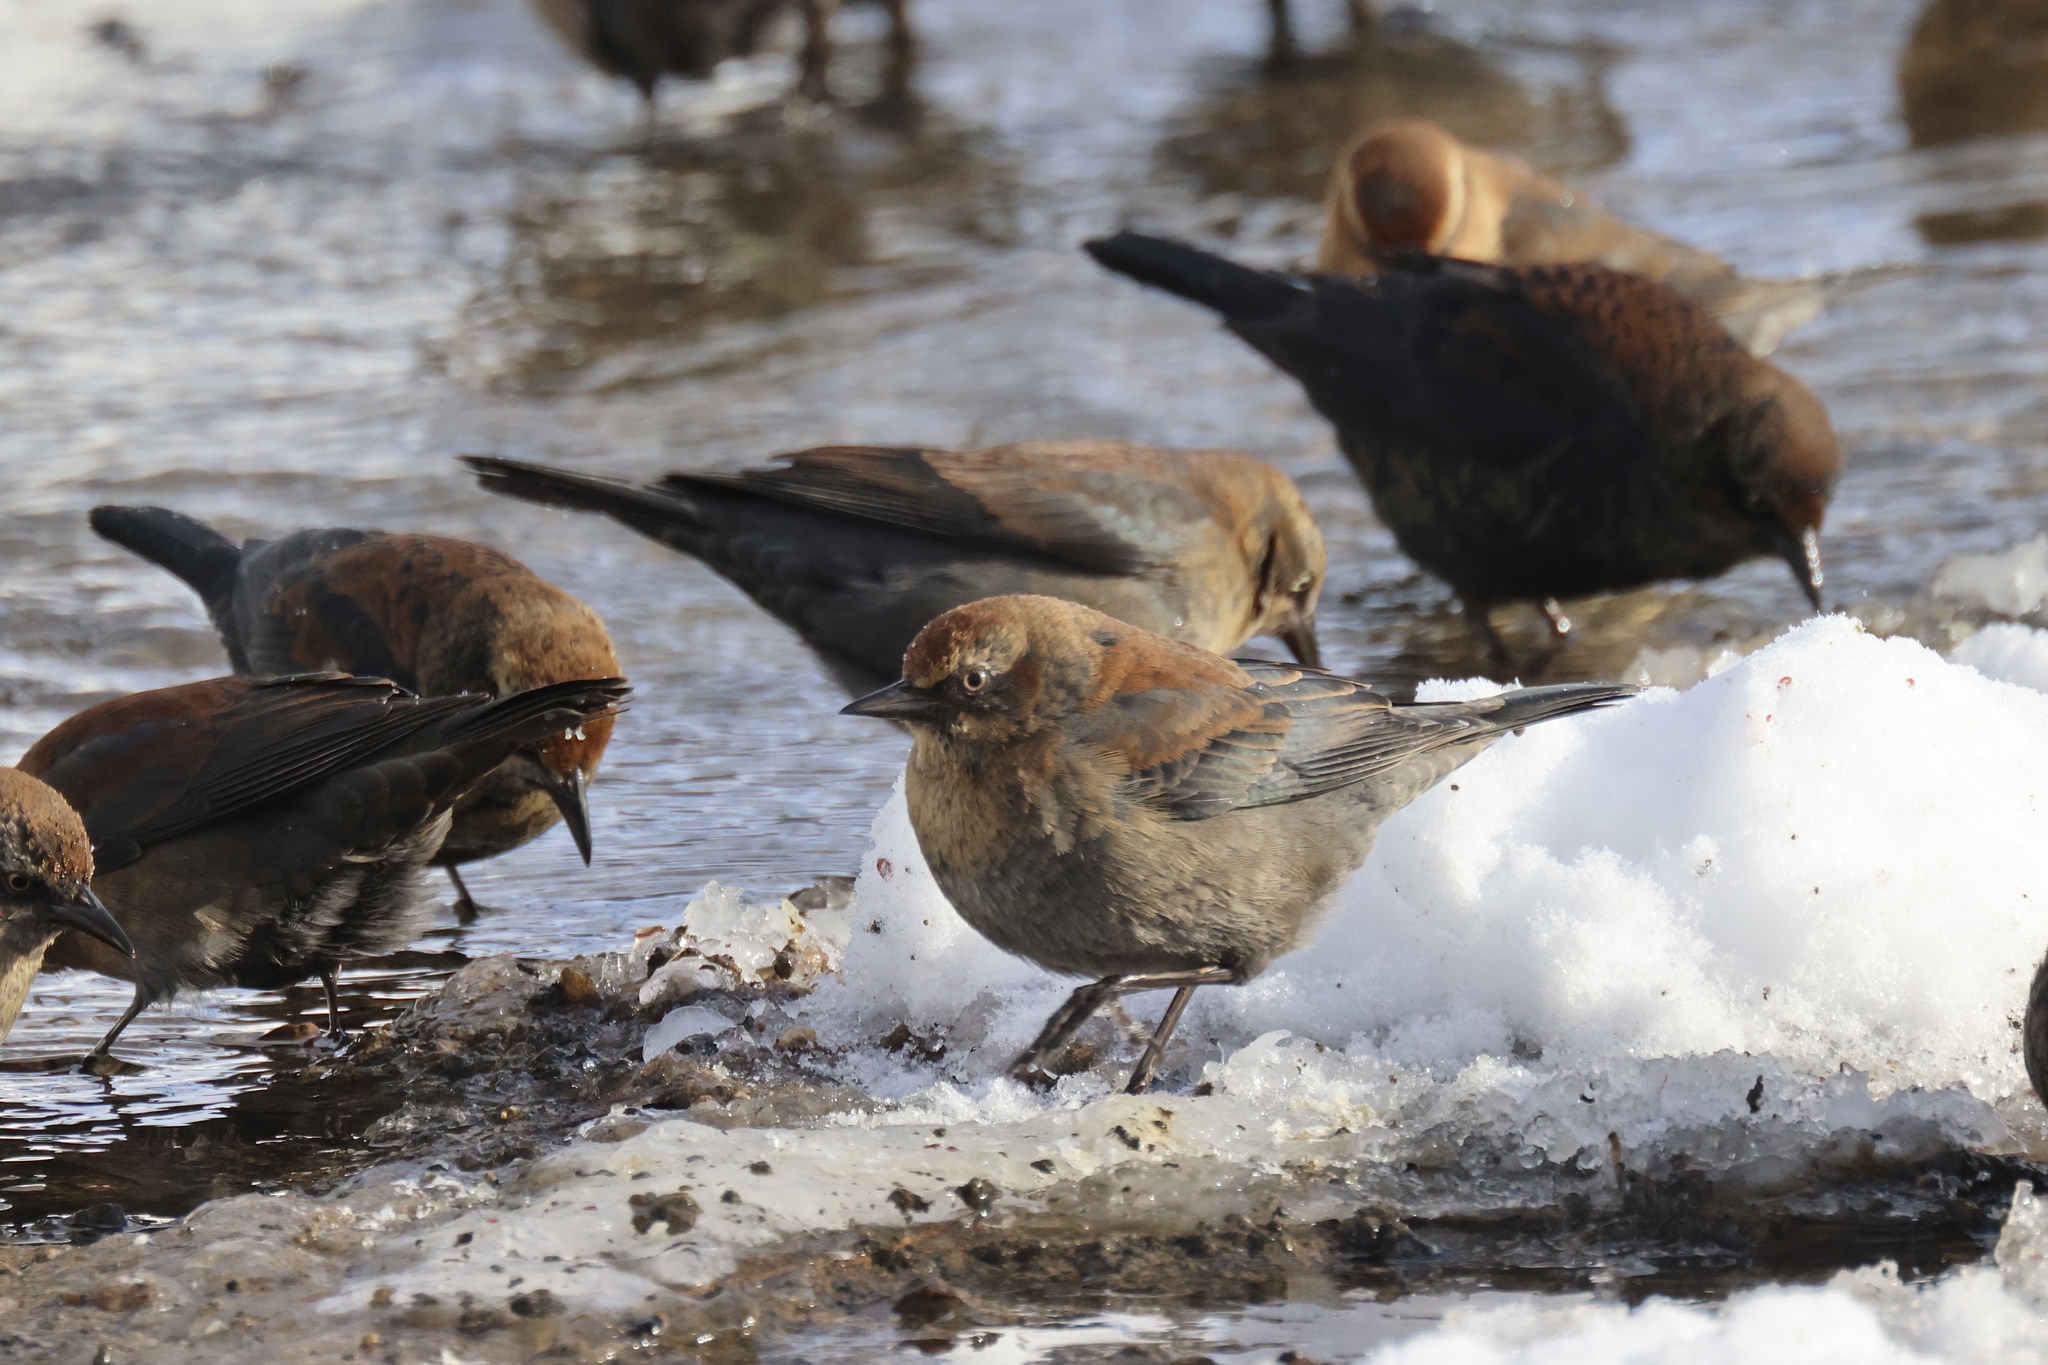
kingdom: Animalia
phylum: Chordata
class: Aves
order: Passeriformes
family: Icteridae
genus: Euphagus
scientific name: Euphagus carolinus
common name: Rusty blackbird
